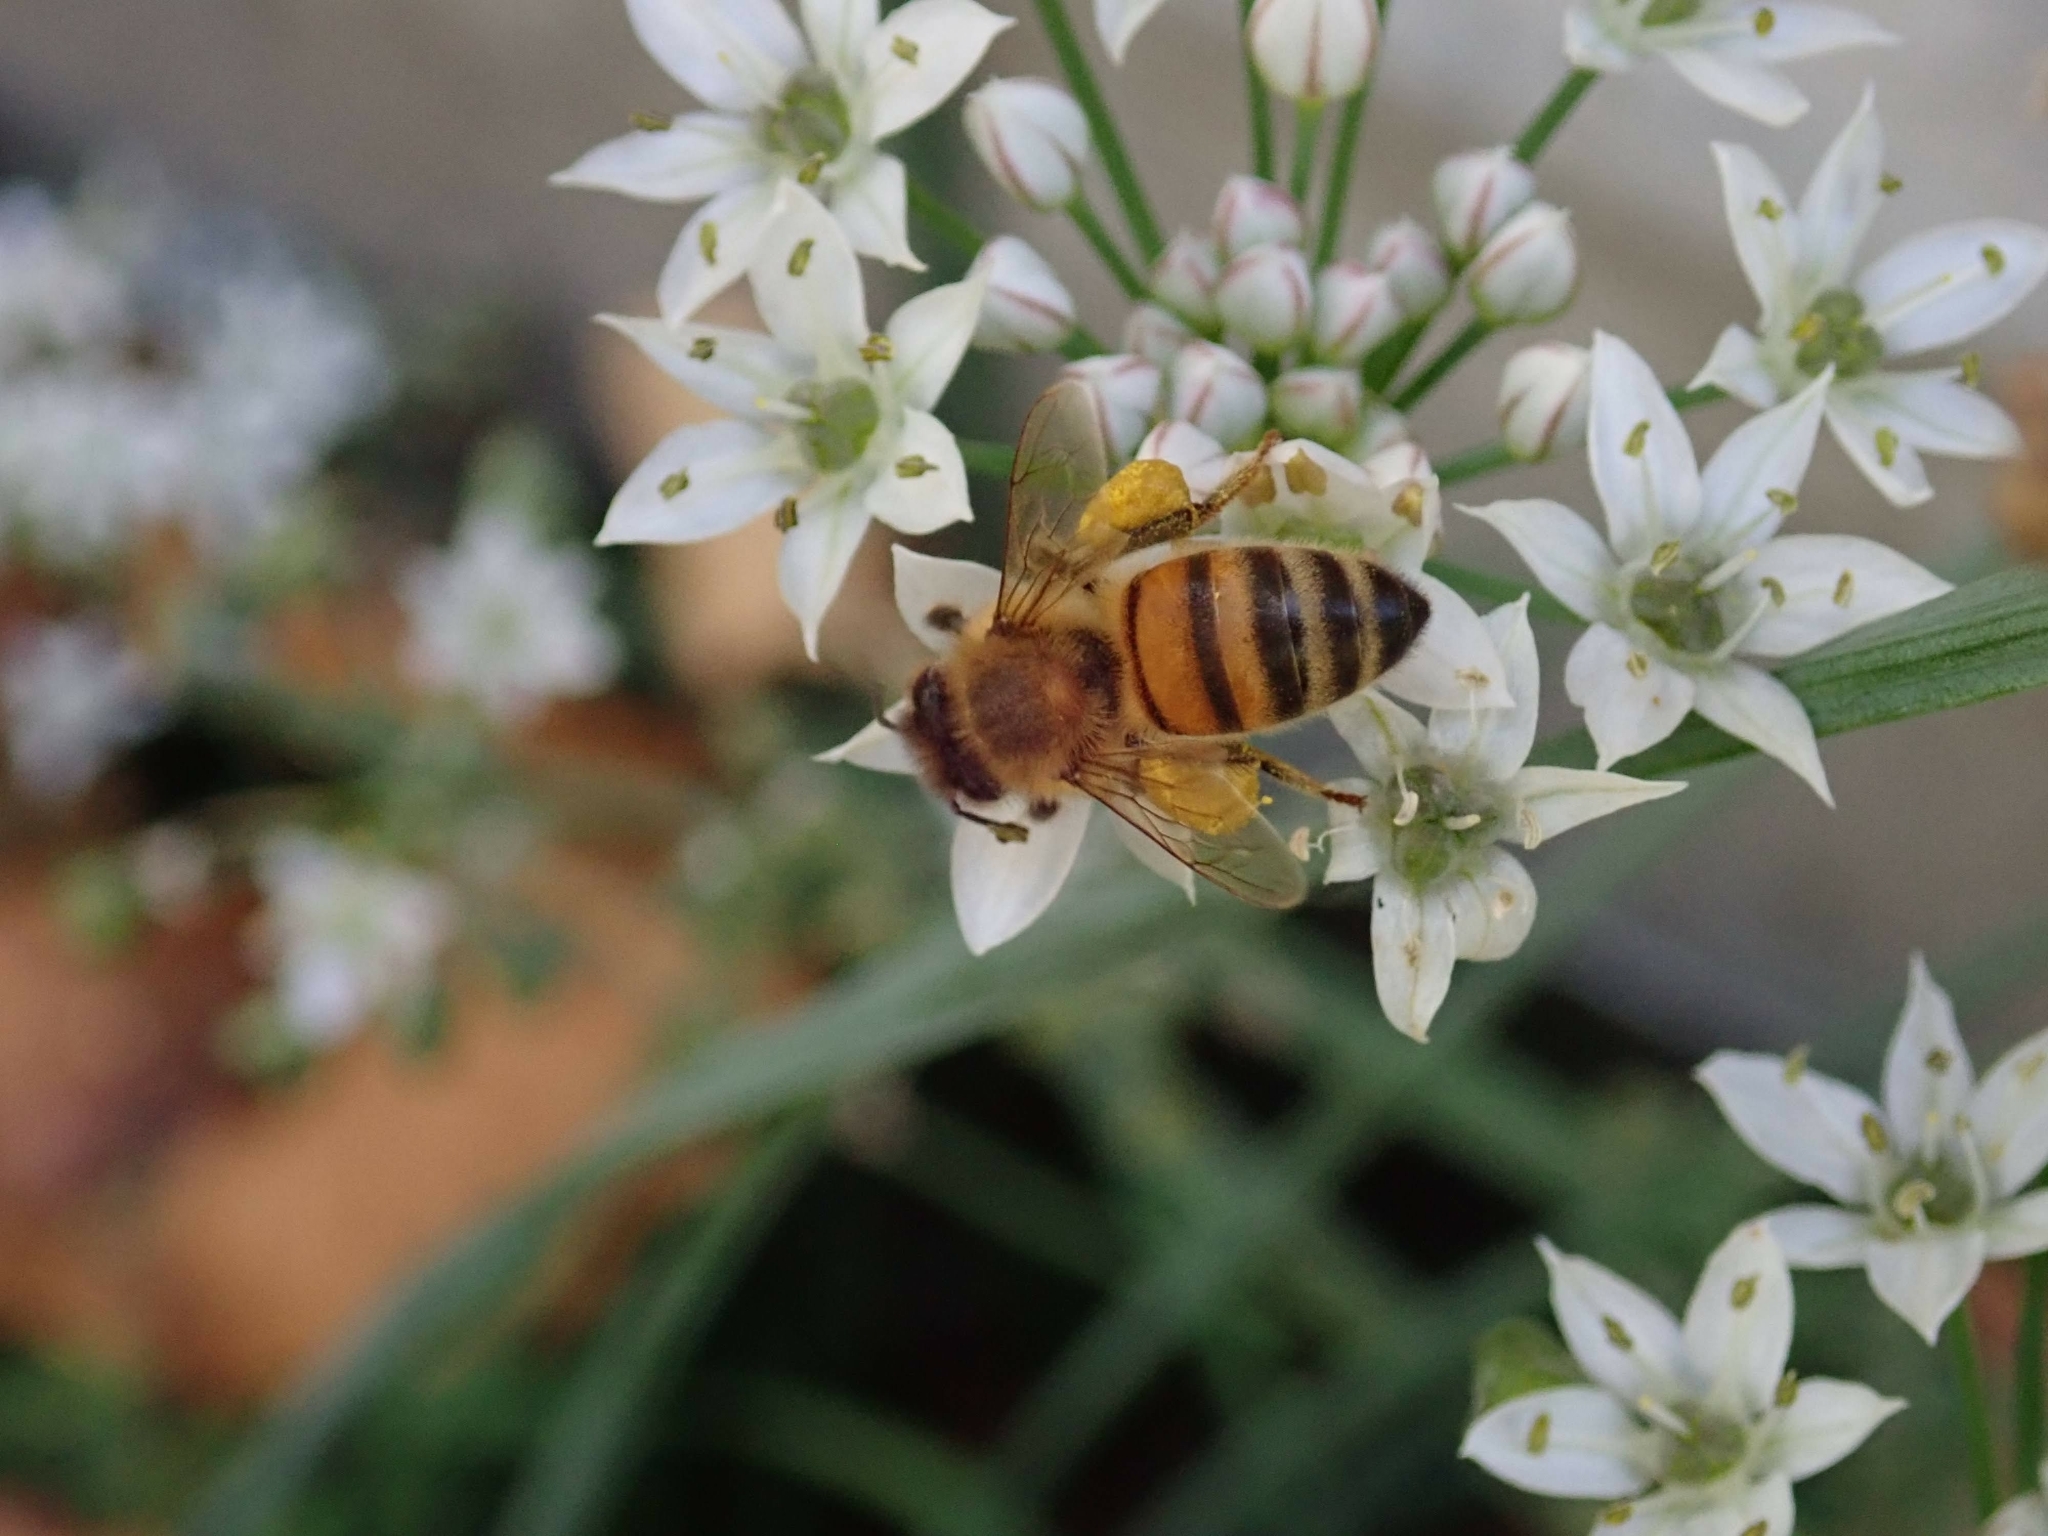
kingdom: Animalia
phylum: Arthropoda
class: Insecta
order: Hymenoptera
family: Apidae
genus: Apis
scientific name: Apis mellifera
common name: Honey bee
